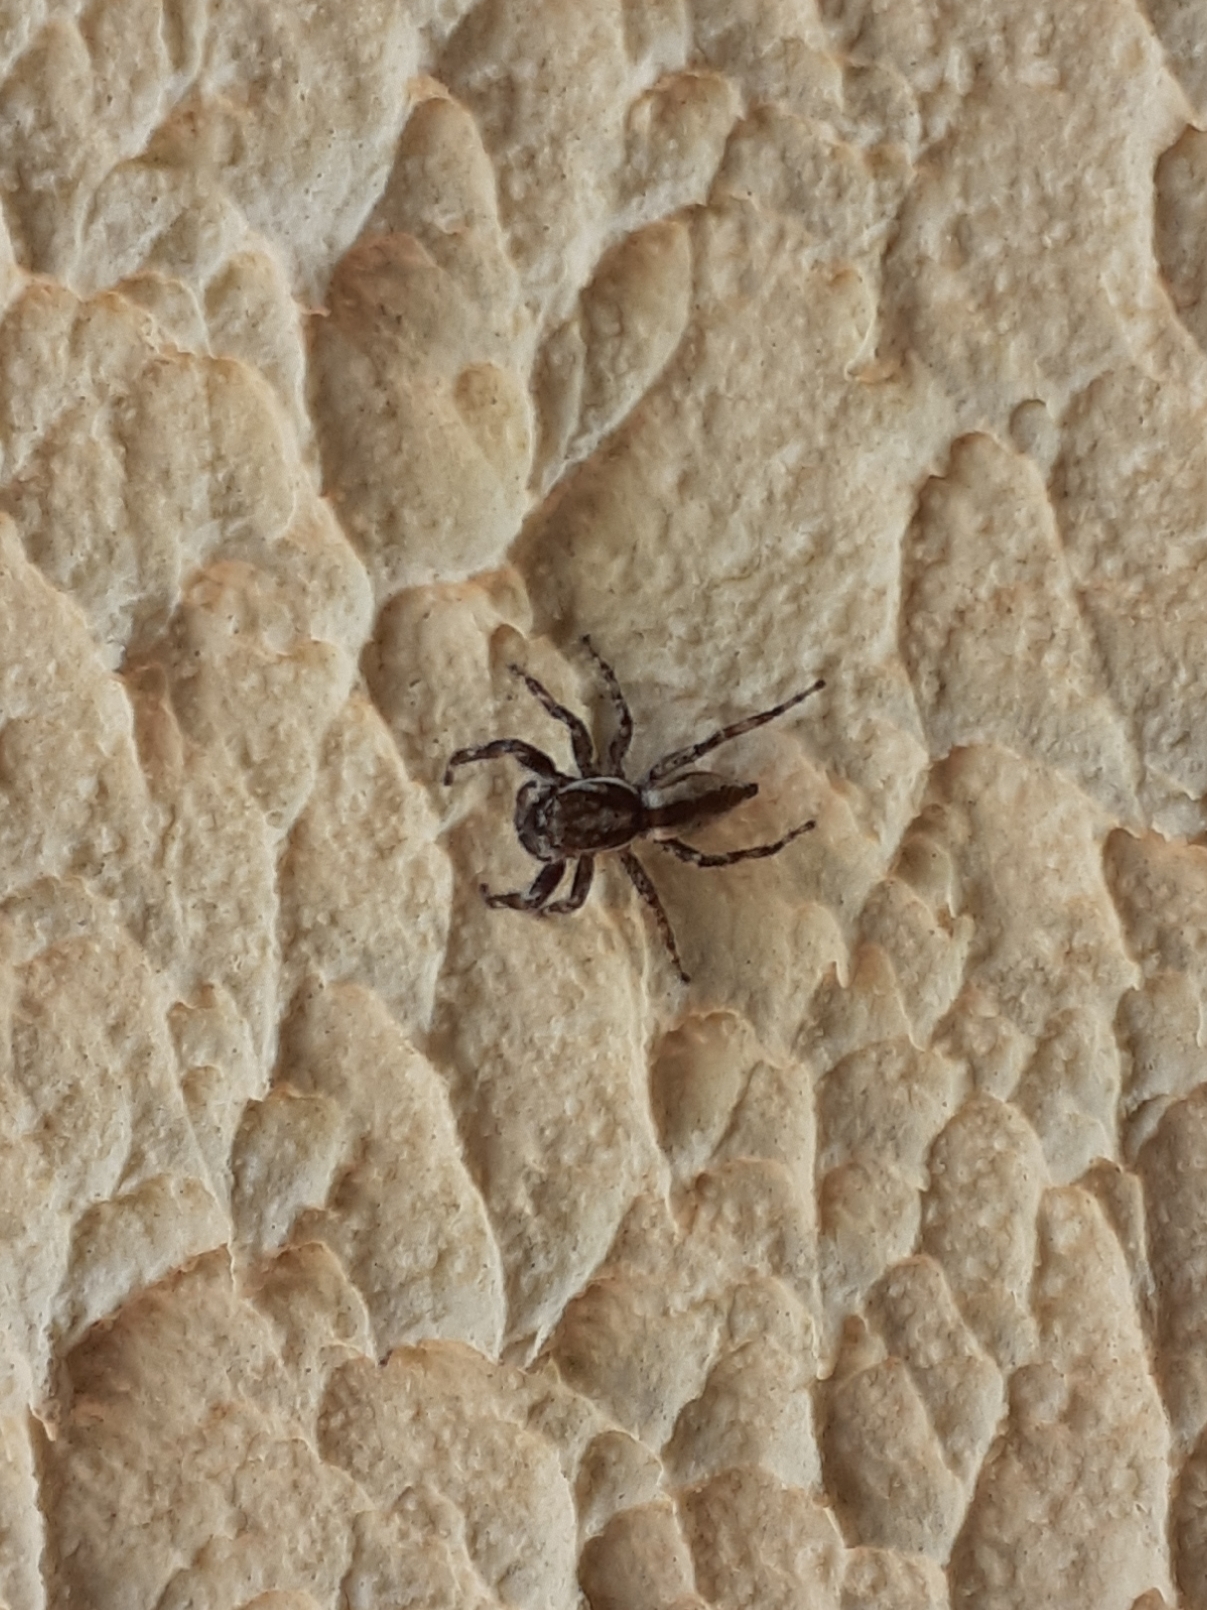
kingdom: Animalia
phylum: Arthropoda
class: Arachnida
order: Araneae
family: Salticidae
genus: Menemerus
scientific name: Menemerus bivittatus
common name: Gray wall jumper
